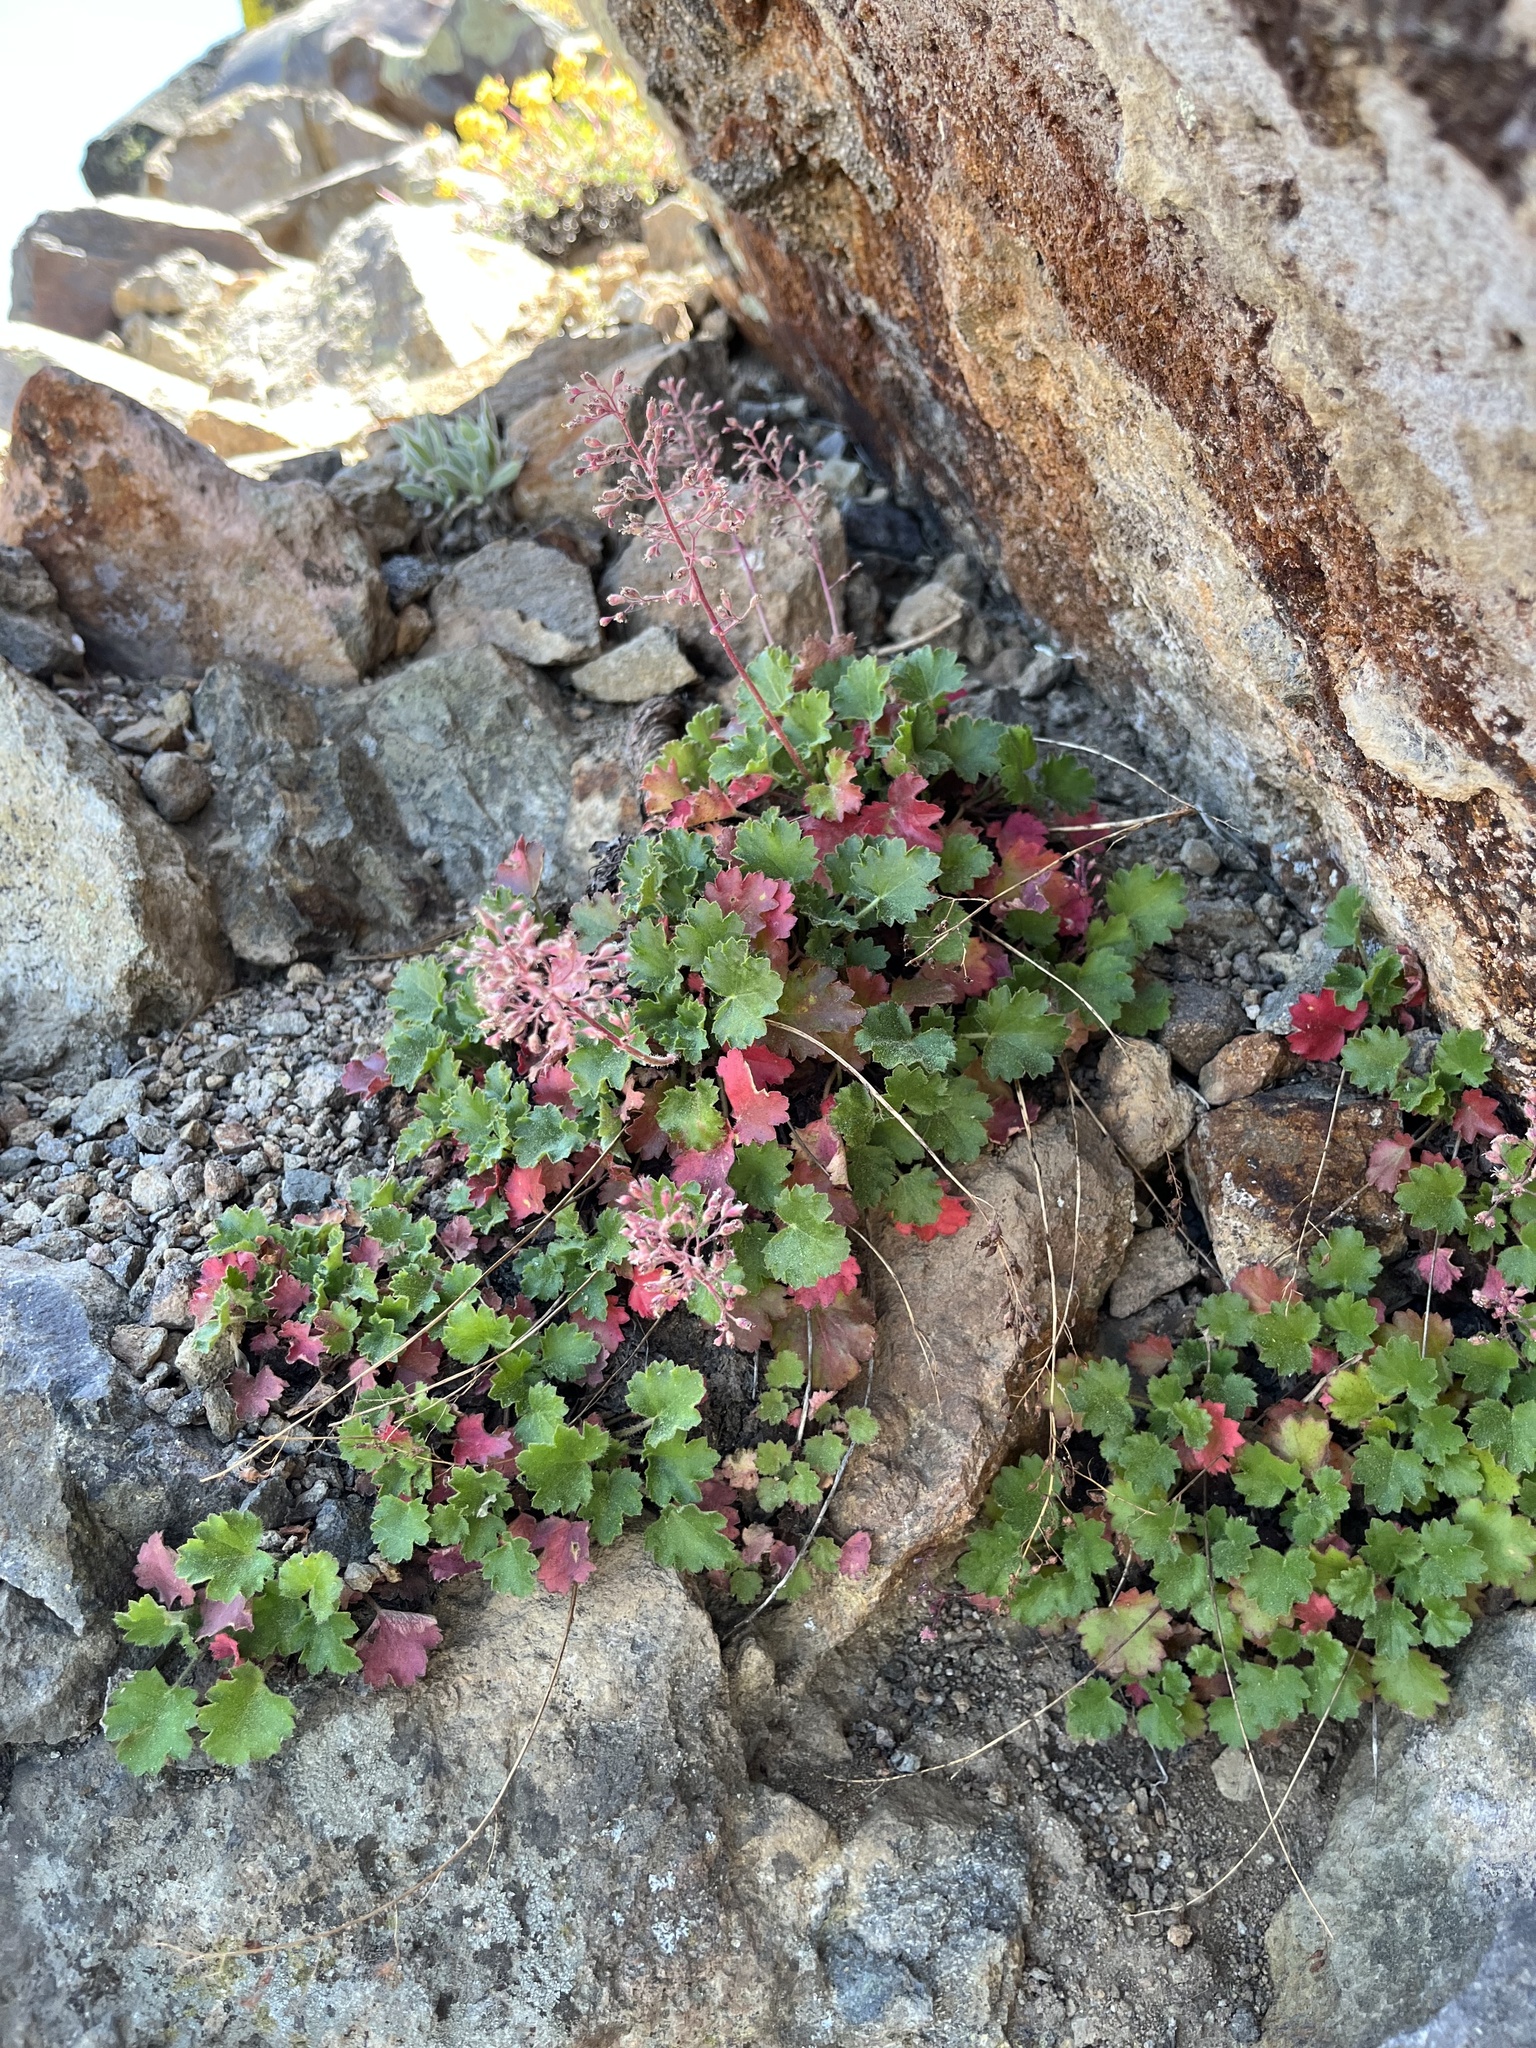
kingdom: Plantae
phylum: Tracheophyta
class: Magnoliopsida
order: Saxifragales
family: Saxifragaceae
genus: Heuchera
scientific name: Heuchera rubescens
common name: Jack-o'the-rocks
